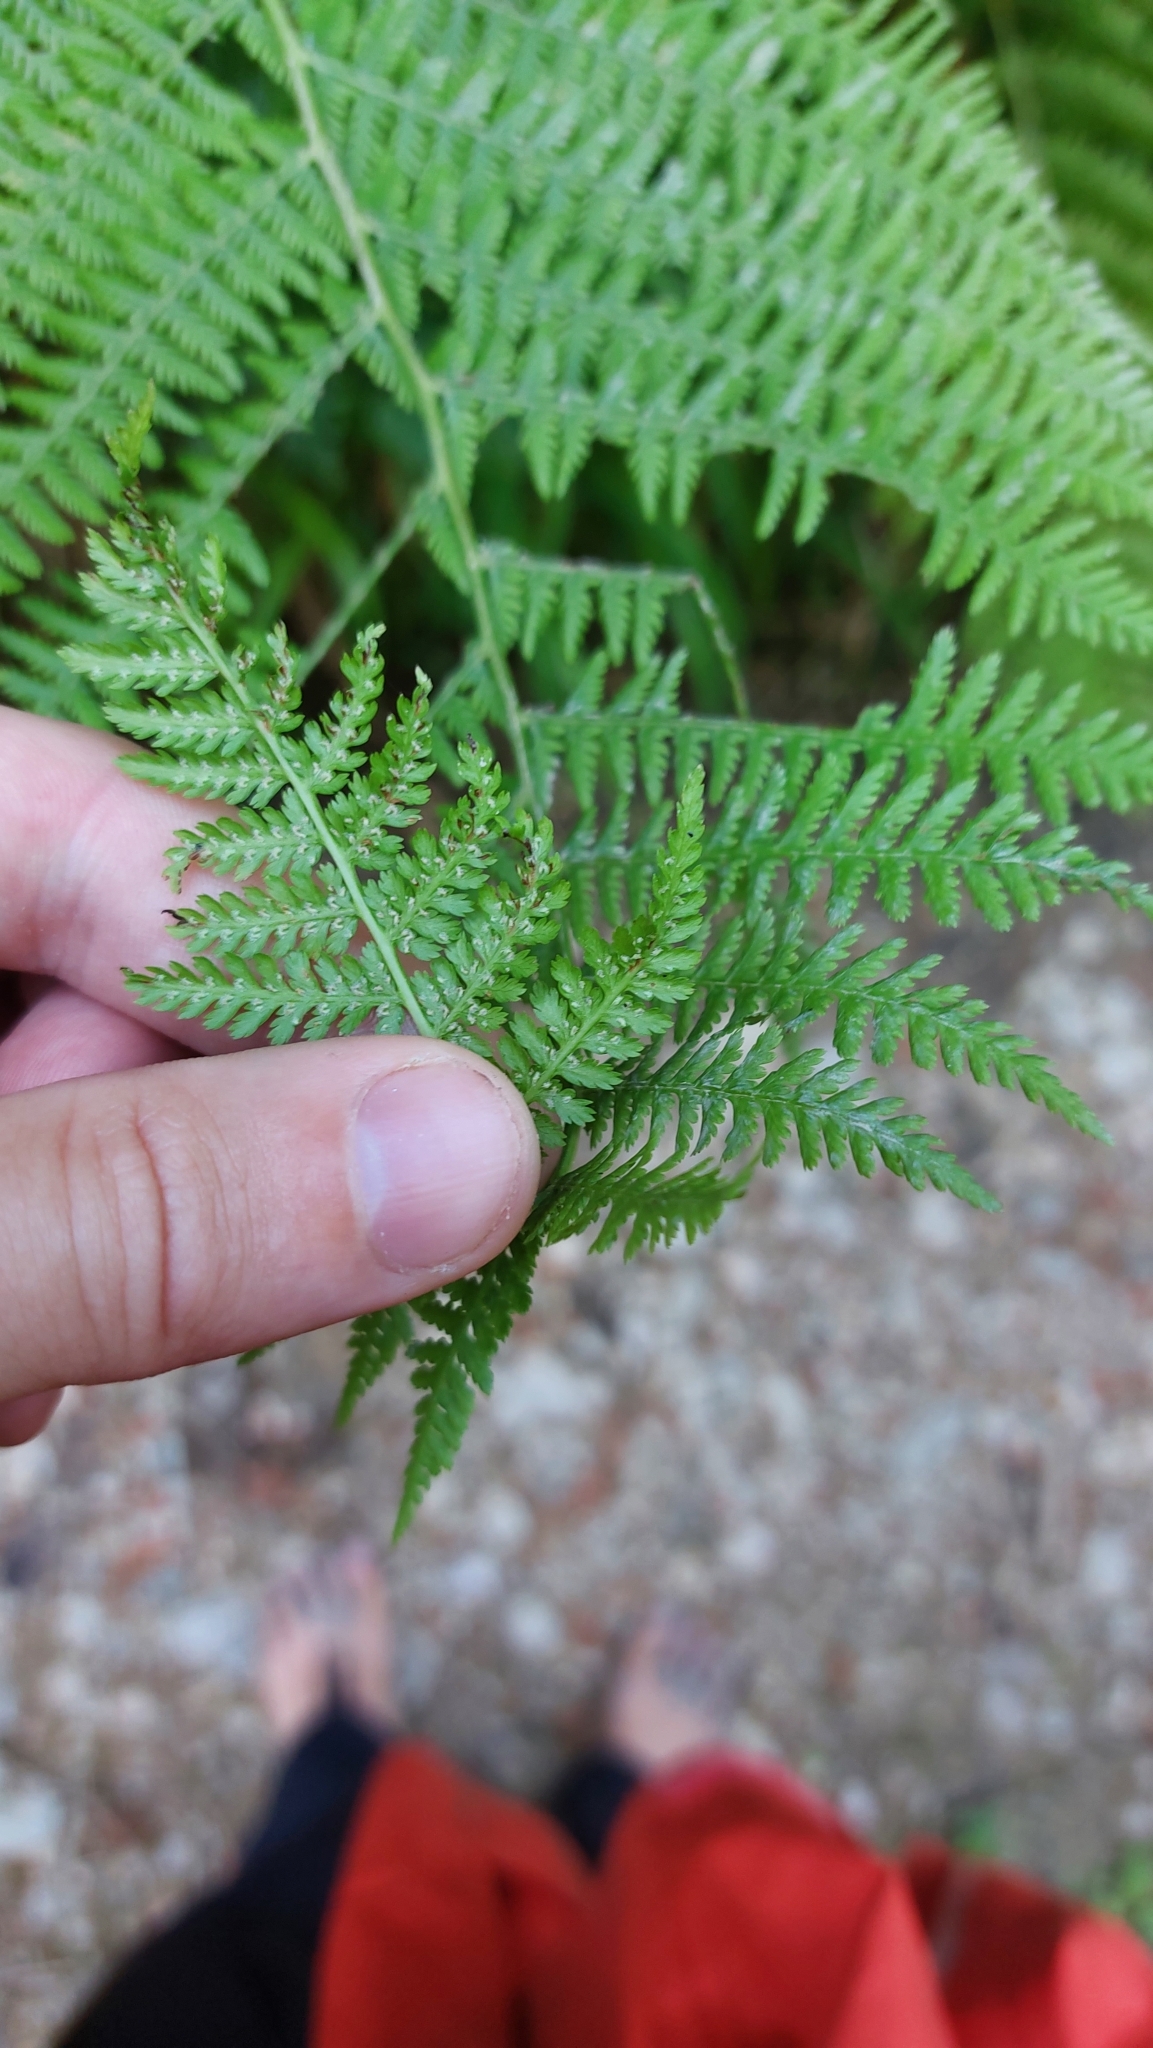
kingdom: Plantae
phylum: Tracheophyta
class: Polypodiopsida
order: Polypodiales
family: Athyriaceae
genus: Athyrium
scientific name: Athyrium filix-femina
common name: Lady fern
